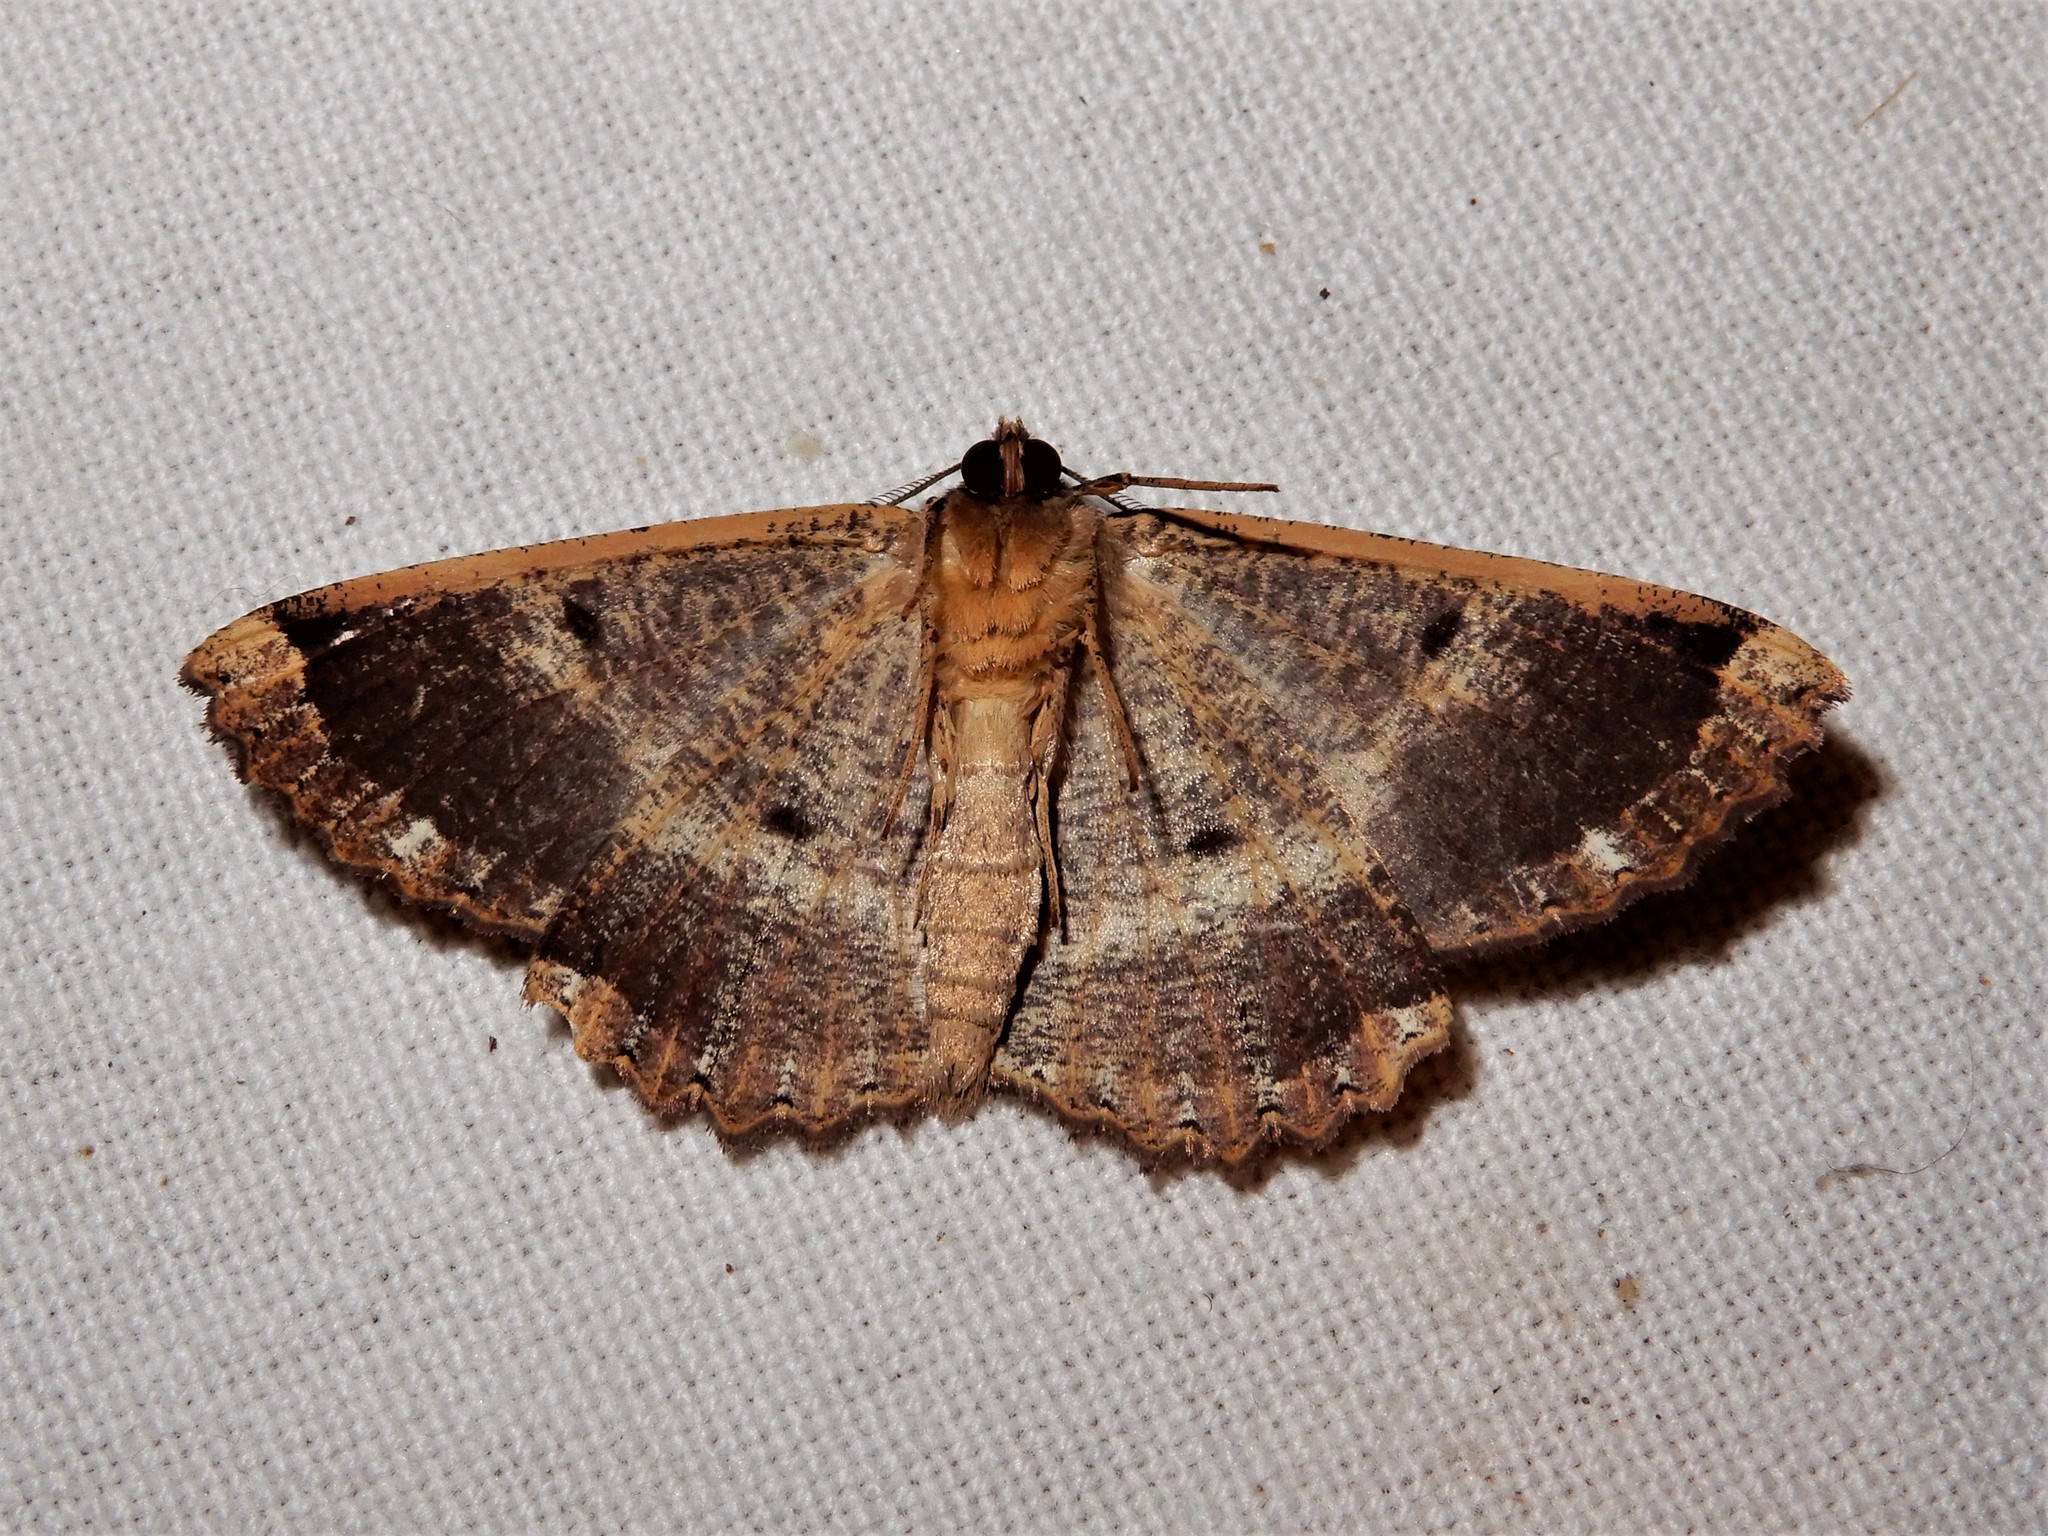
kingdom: Animalia
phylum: Arthropoda
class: Insecta
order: Lepidoptera
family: Geometridae
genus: Gellonia
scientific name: Gellonia dejectaria
